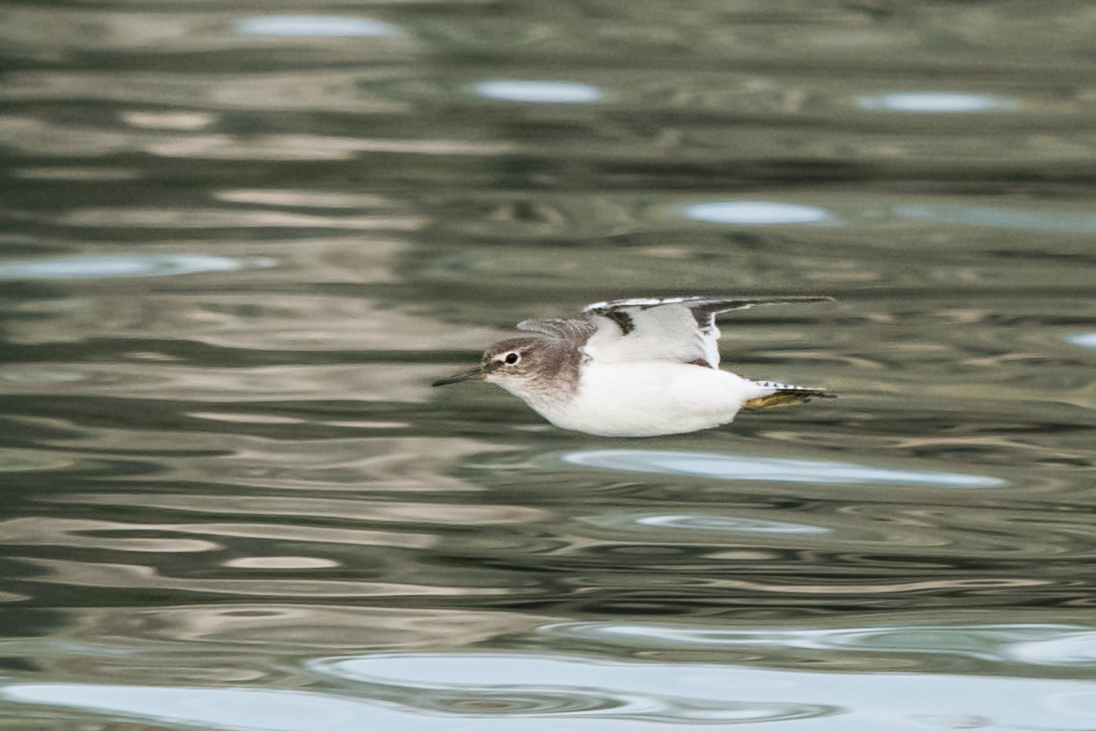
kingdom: Animalia
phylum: Chordata
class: Aves
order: Charadriiformes
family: Scolopacidae
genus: Actitis
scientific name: Actitis hypoleucos
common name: Common sandpiper
